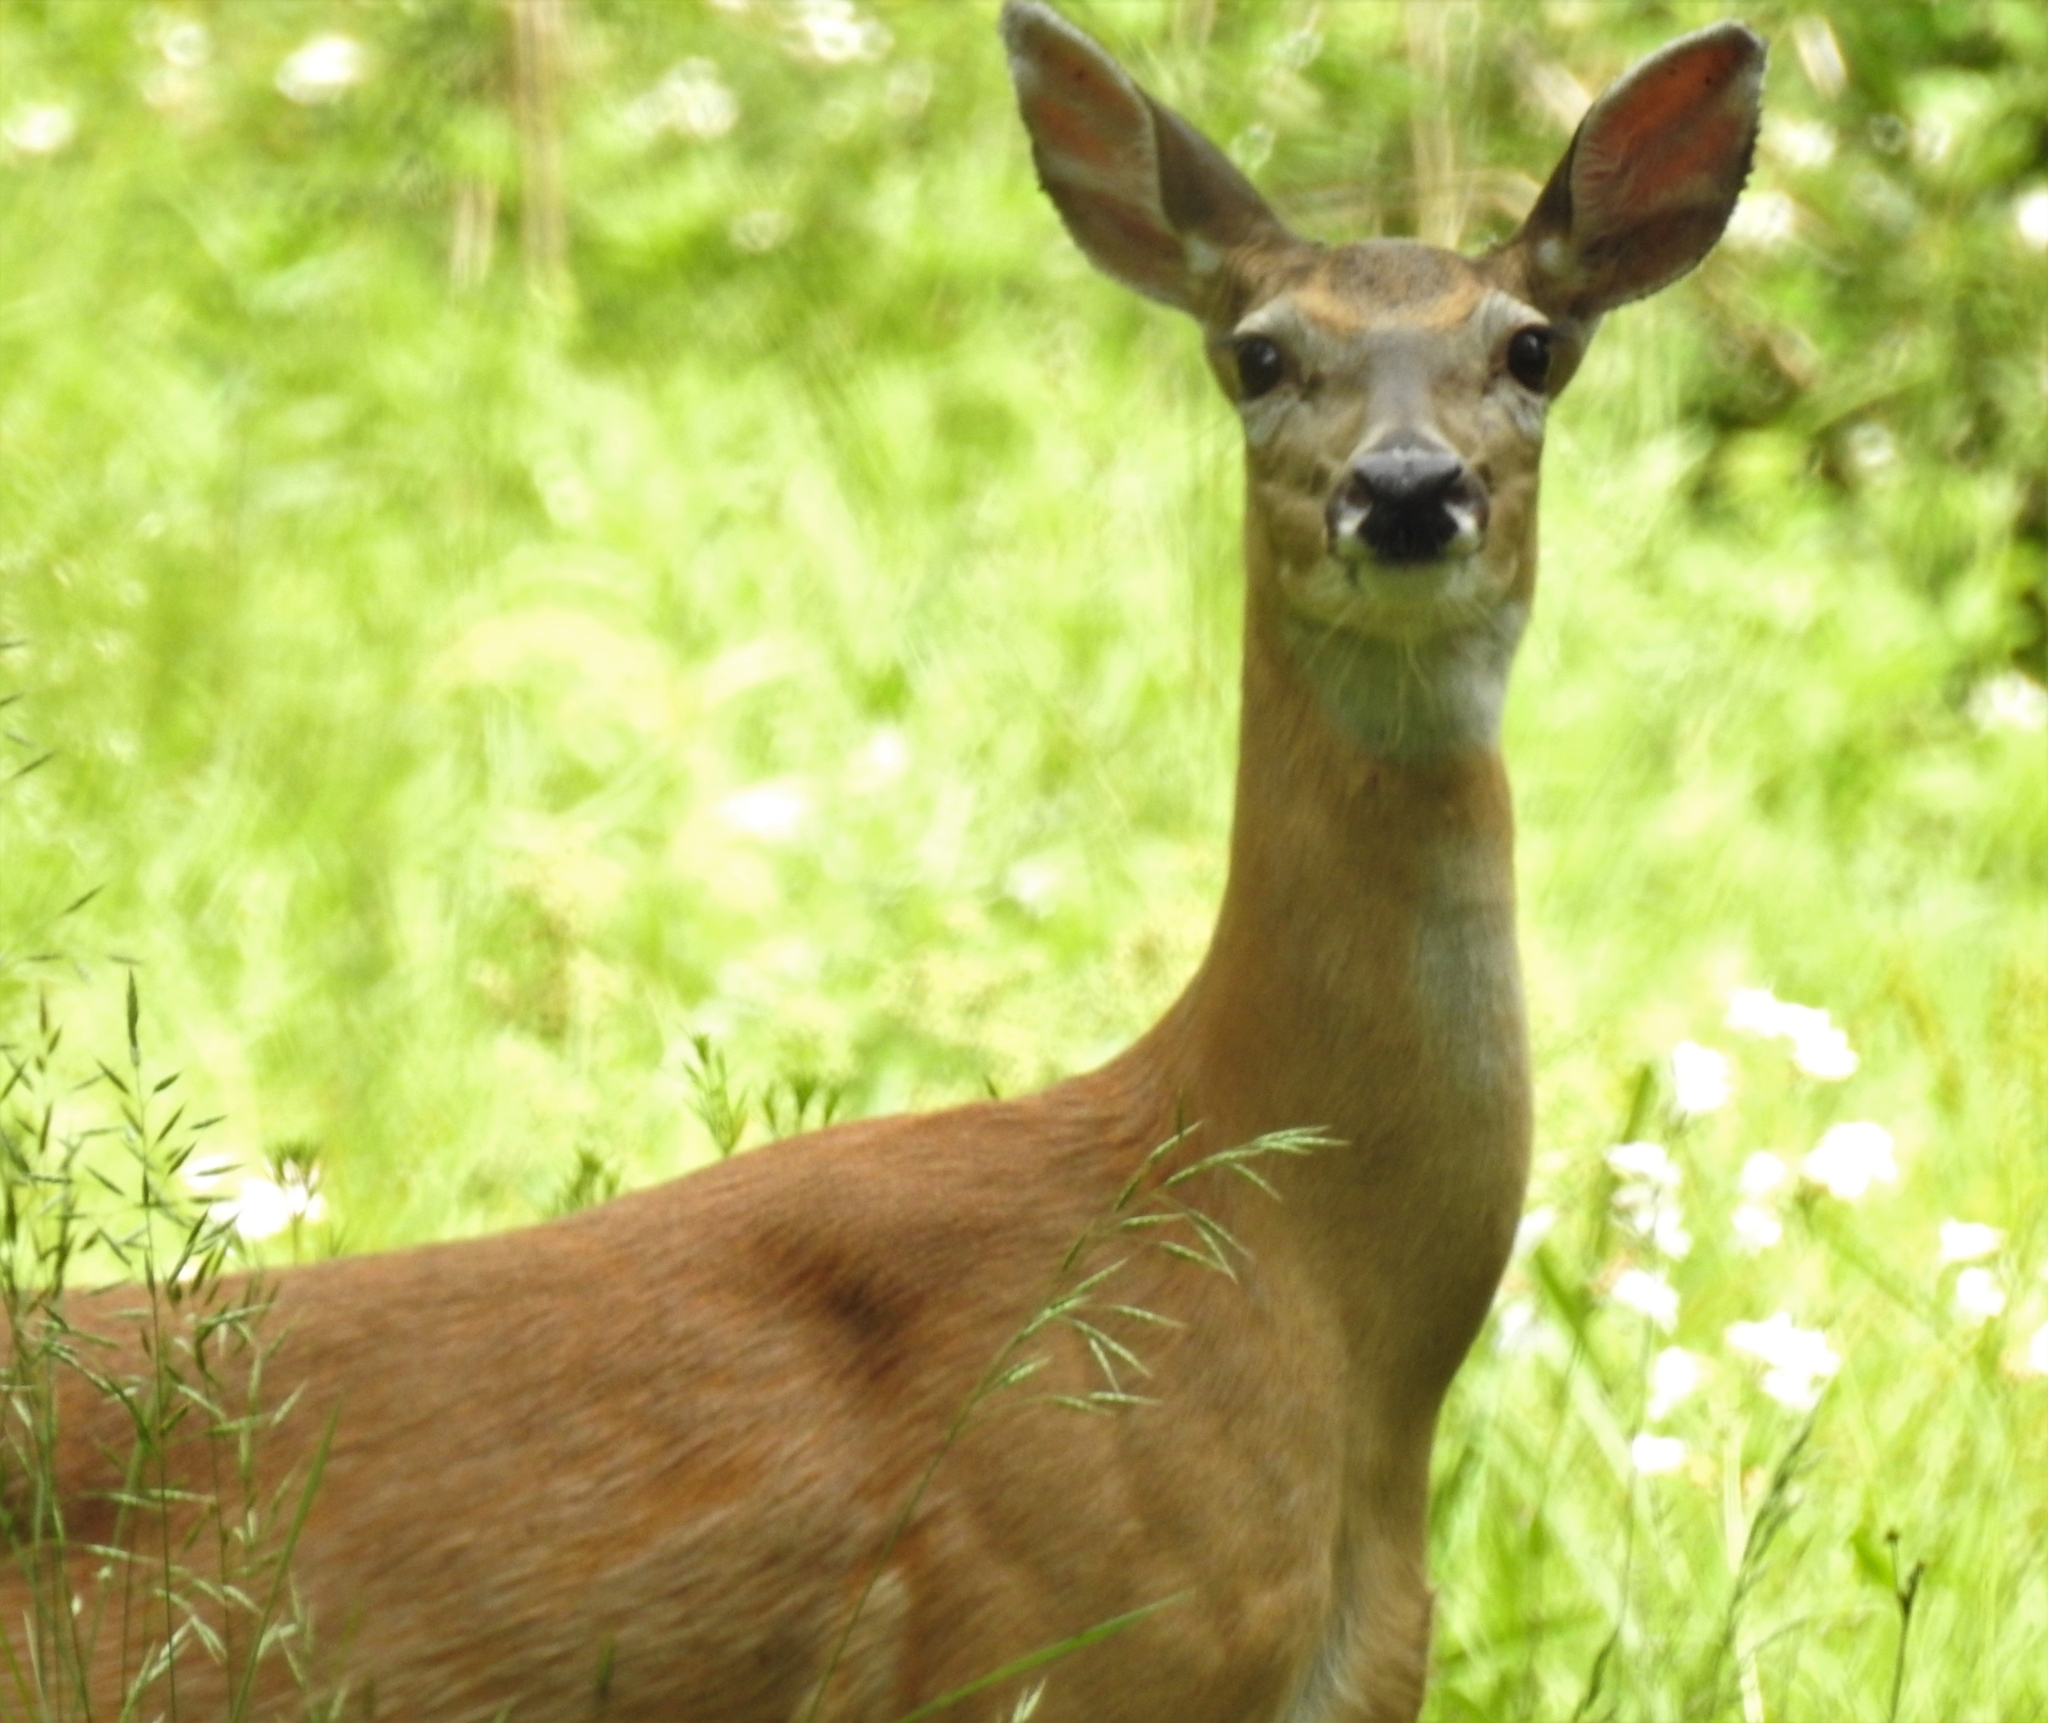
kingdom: Animalia
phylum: Chordata
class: Mammalia
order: Artiodactyla
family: Cervidae
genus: Odocoileus
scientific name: Odocoileus virginianus
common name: White-tailed deer
